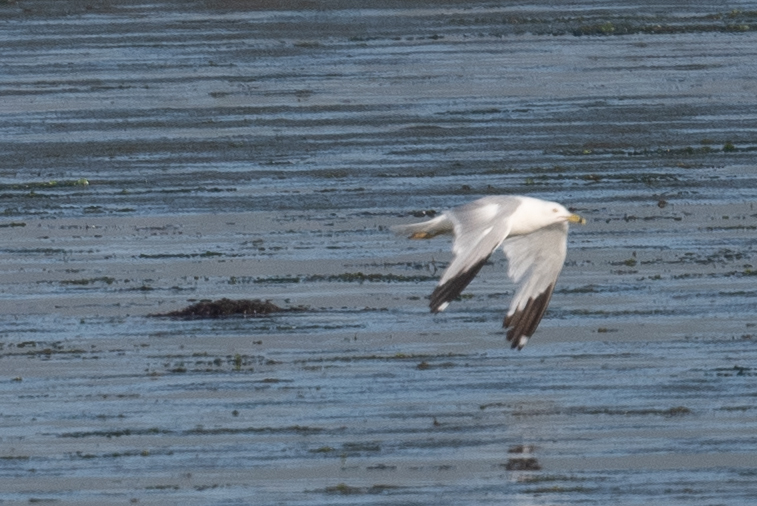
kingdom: Animalia
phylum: Chordata
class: Aves
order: Charadriiformes
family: Laridae
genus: Larus
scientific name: Larus delawarensis
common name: Ring-billed gull
